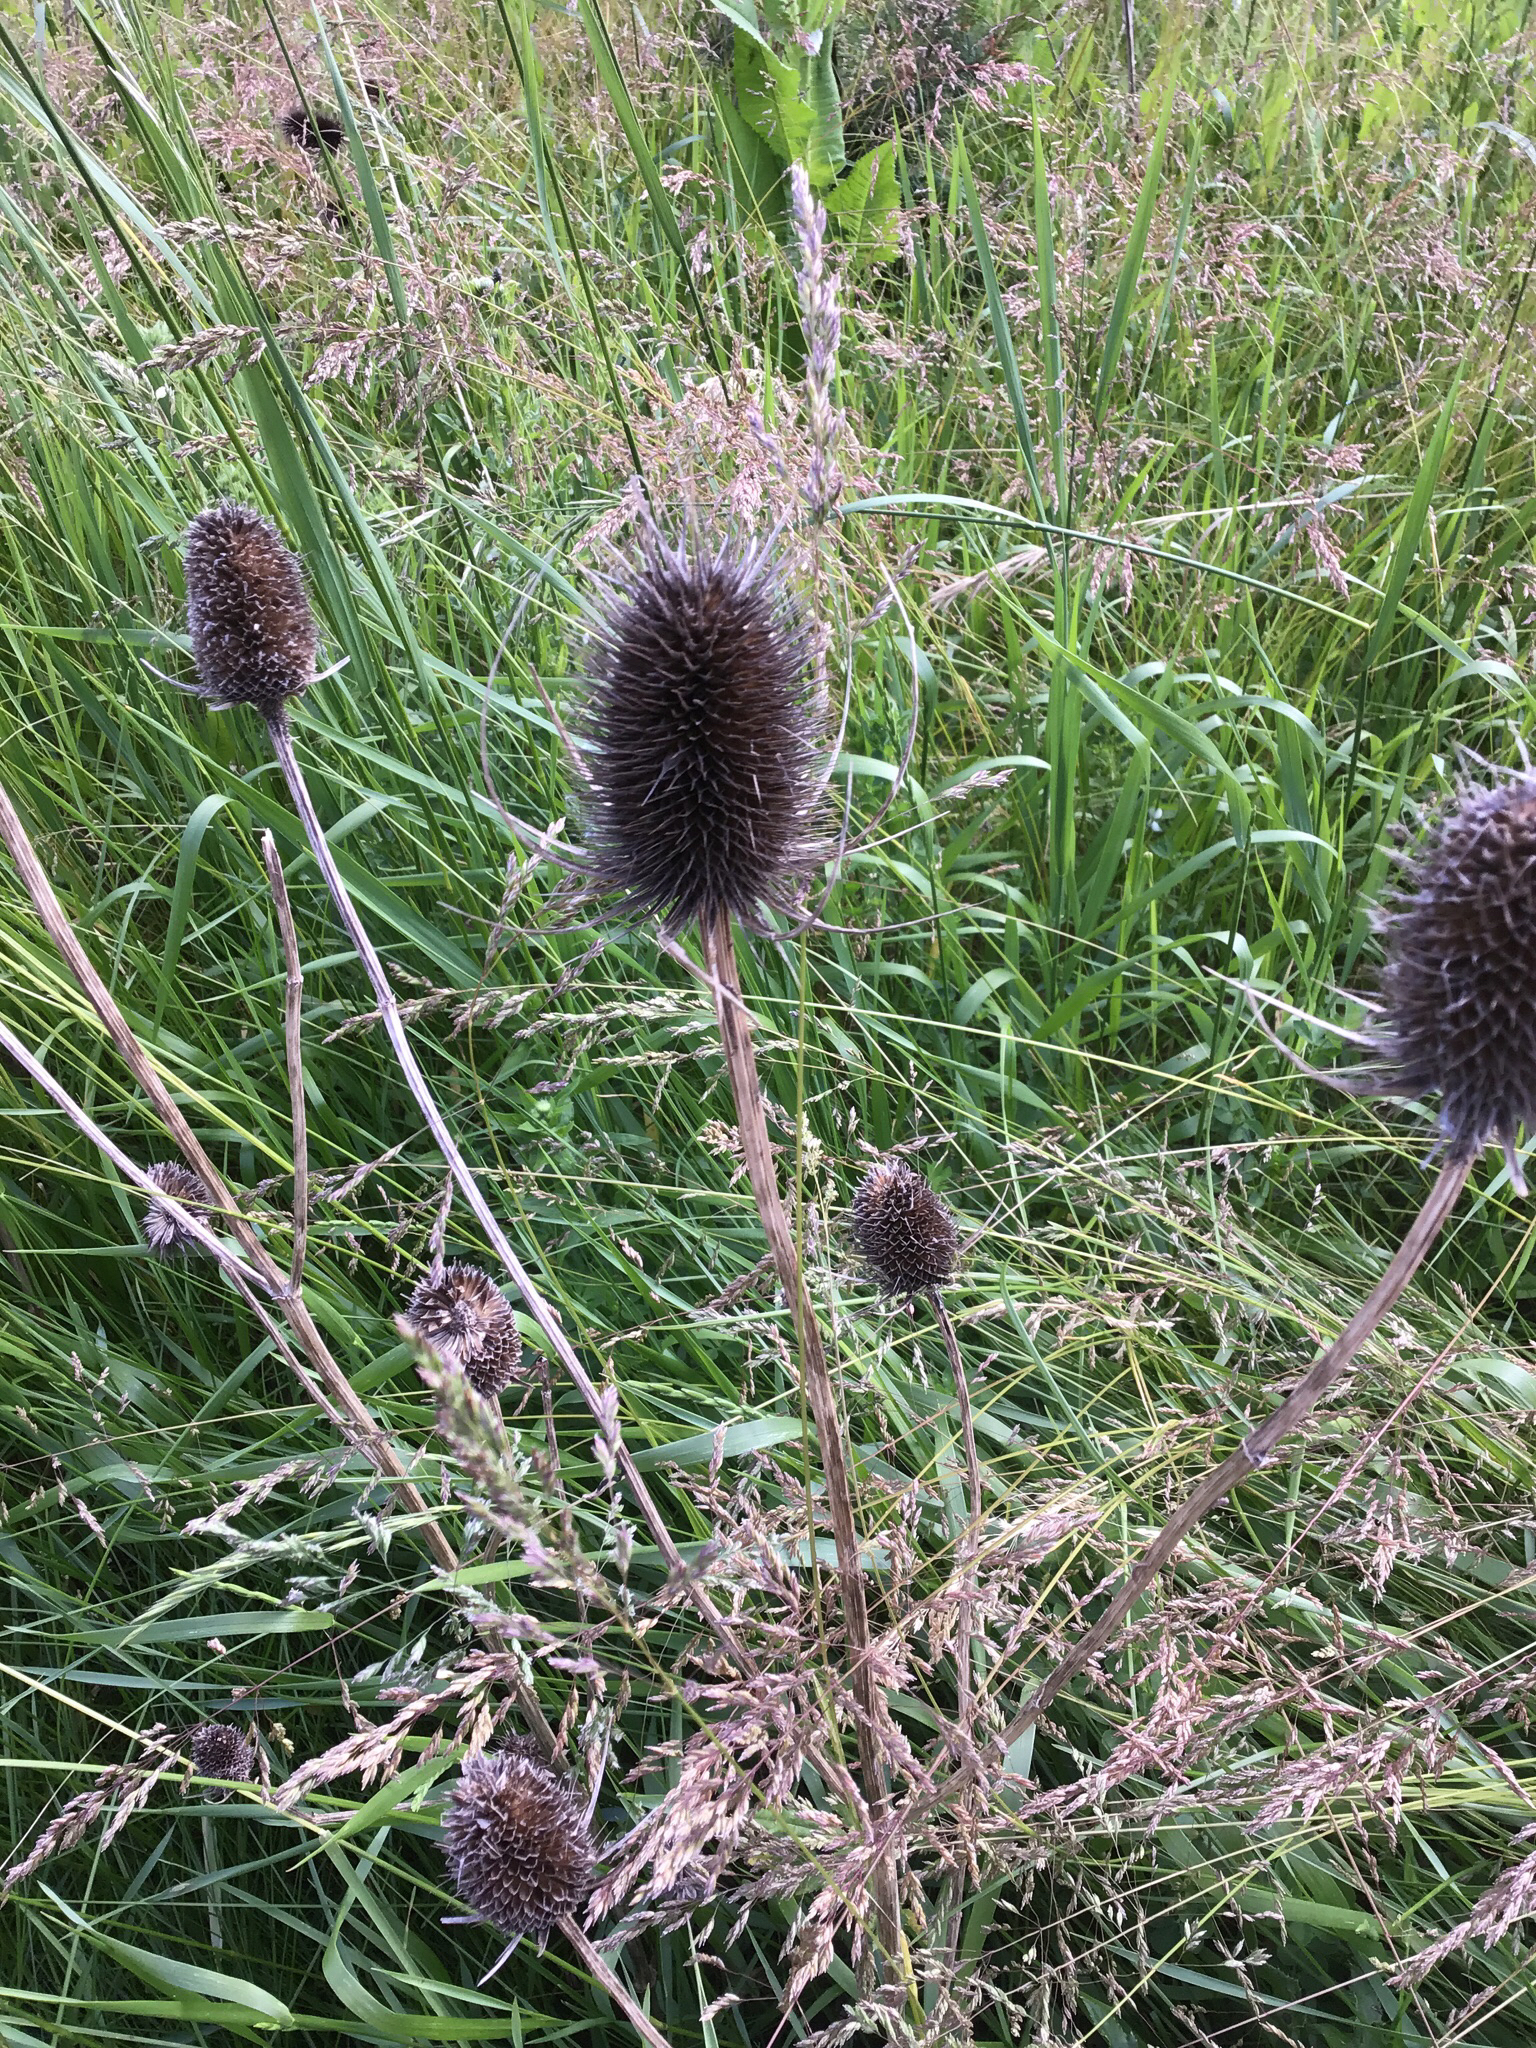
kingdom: Plantae
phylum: Tracheophyta
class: Magnoliopsida
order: Dipsacales
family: Caprifoliaceae
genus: Dipsacus
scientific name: Dipsacus fullonum
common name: Teasel
